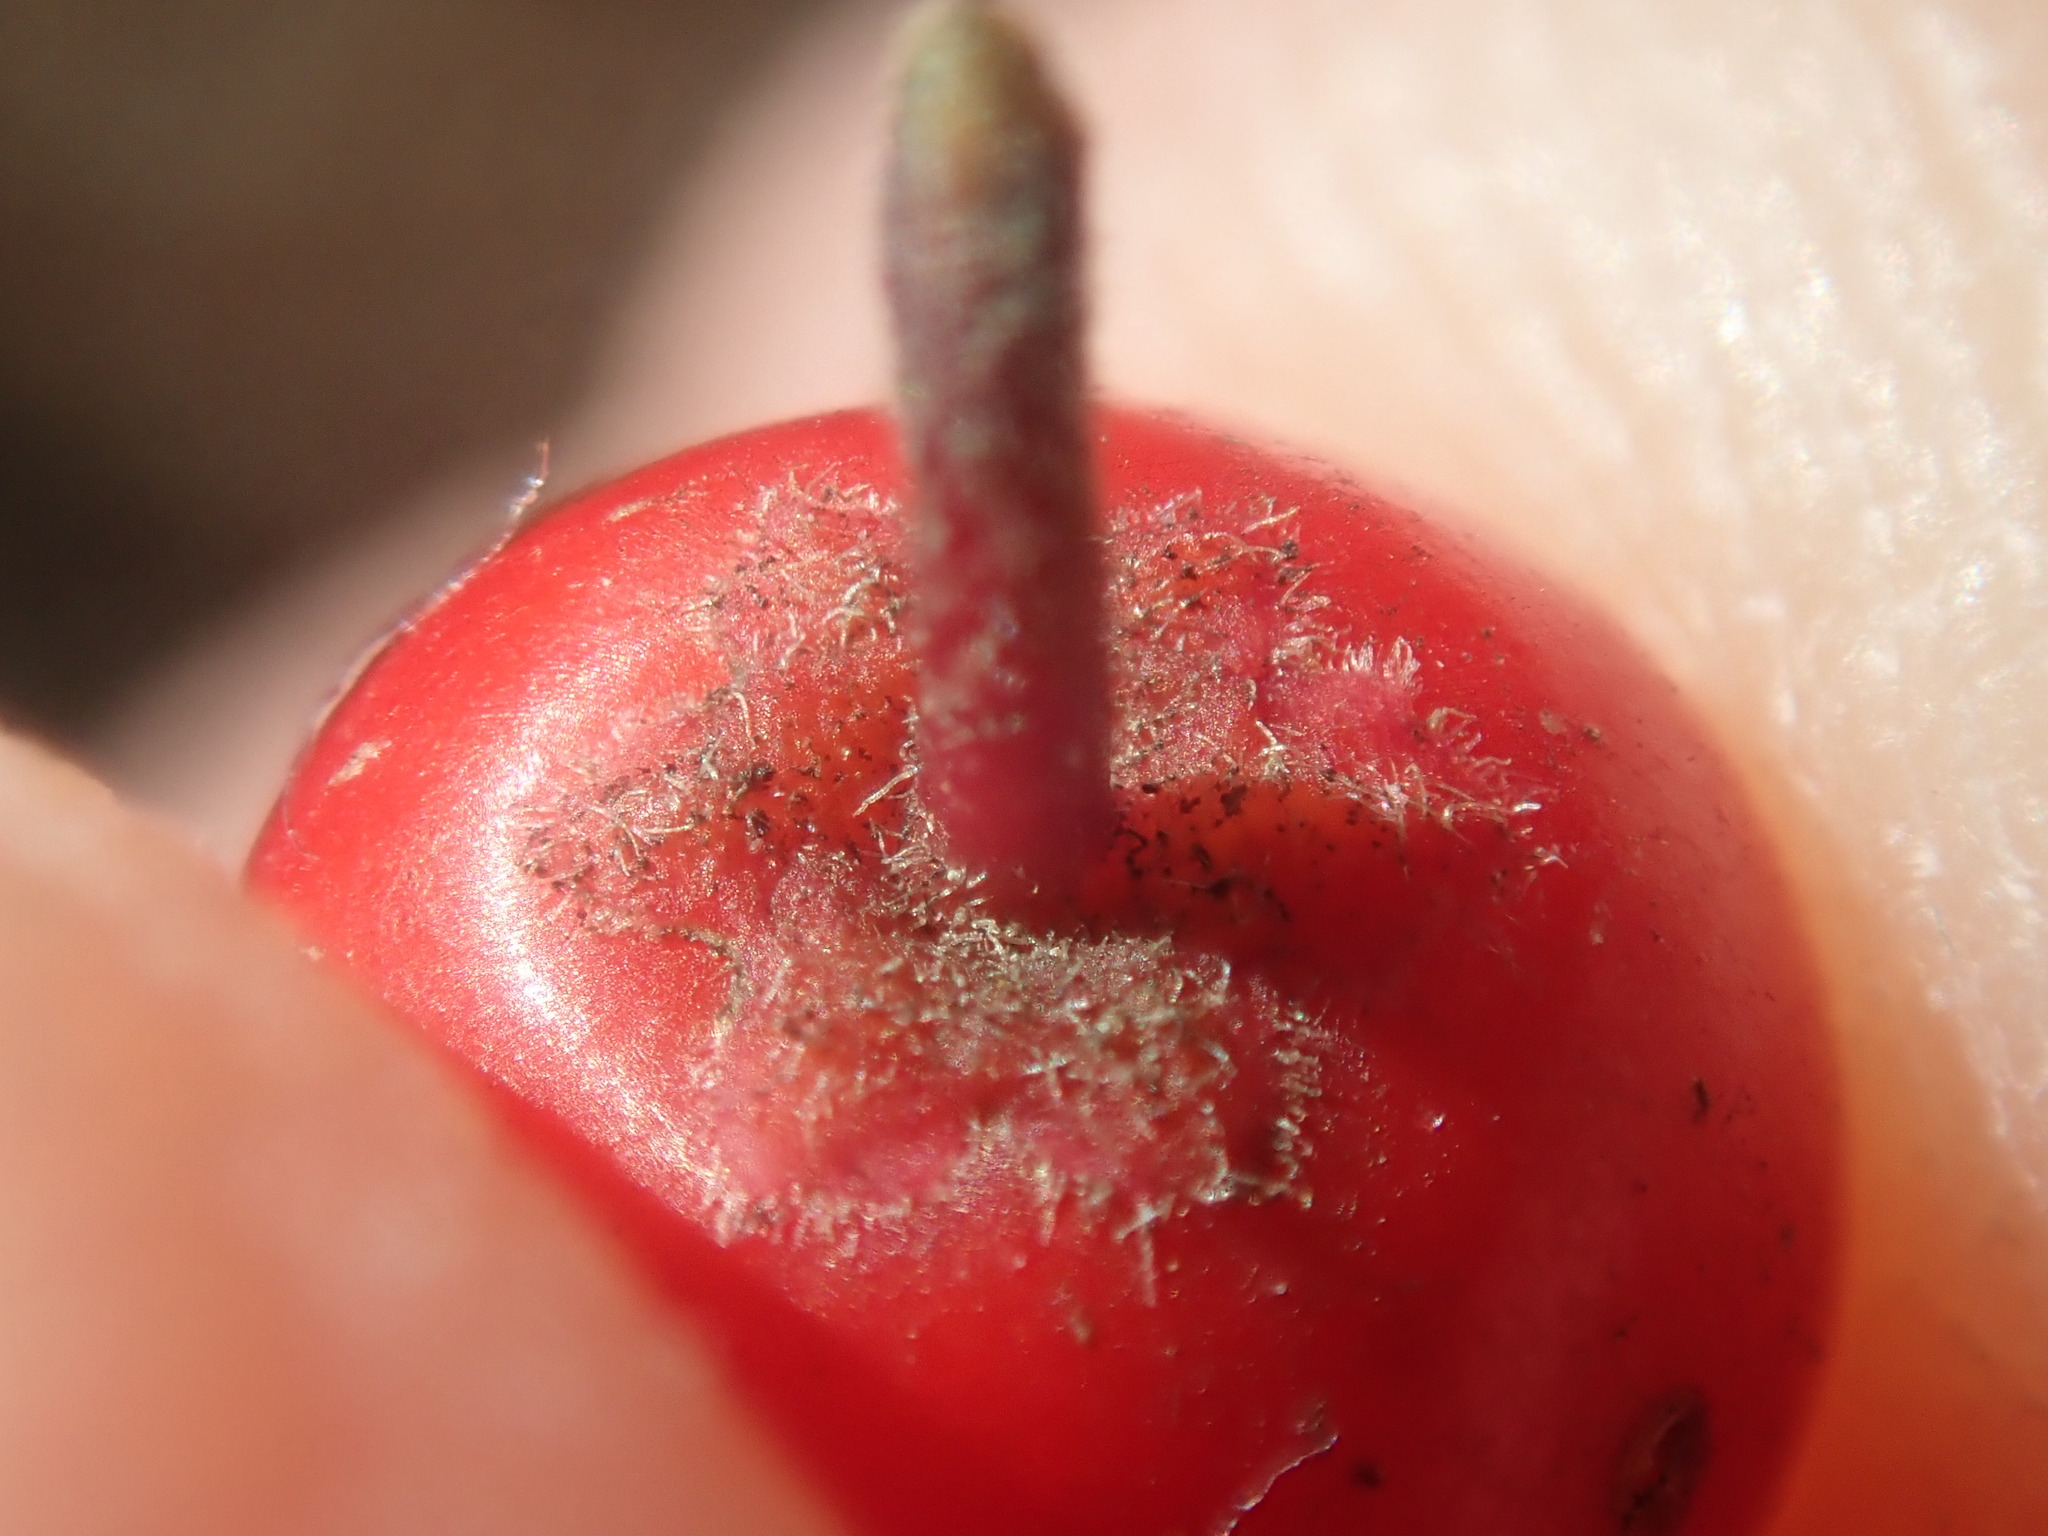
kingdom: Plantae
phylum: Tracheophyta
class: Magnoliopsida
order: Aquifoliales
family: Aquifoliaceae
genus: Ilex
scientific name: Ilex verticillata
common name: Virginia winterberry
